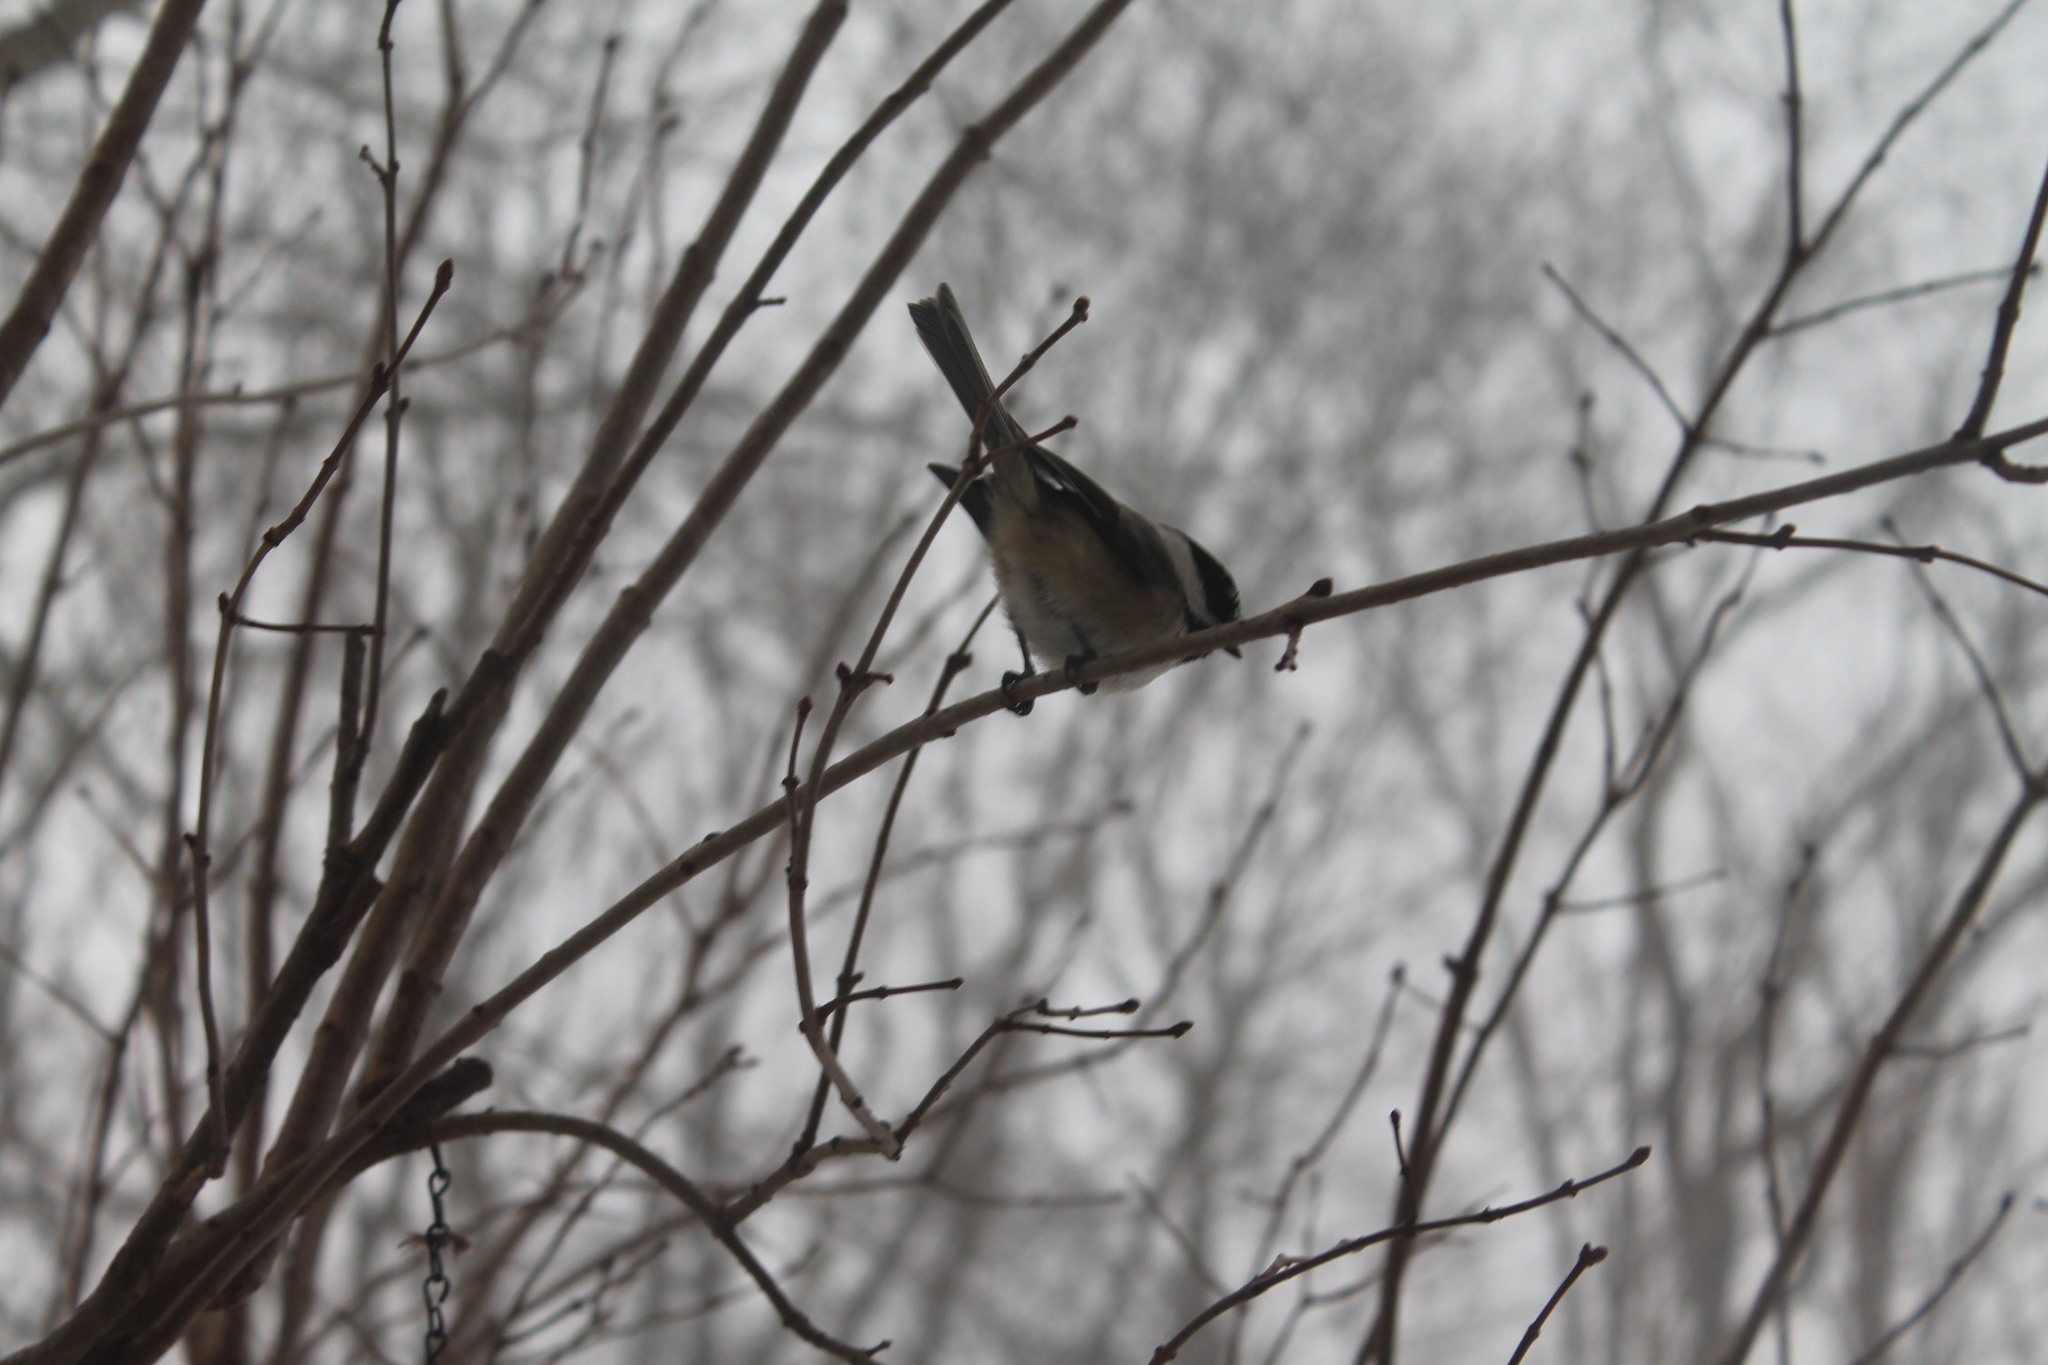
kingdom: Animalia
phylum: Chordata
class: Aves
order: Passeriformes
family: Paridae
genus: Poecile
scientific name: Poecile atricapillus
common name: Black-capped chickadee
